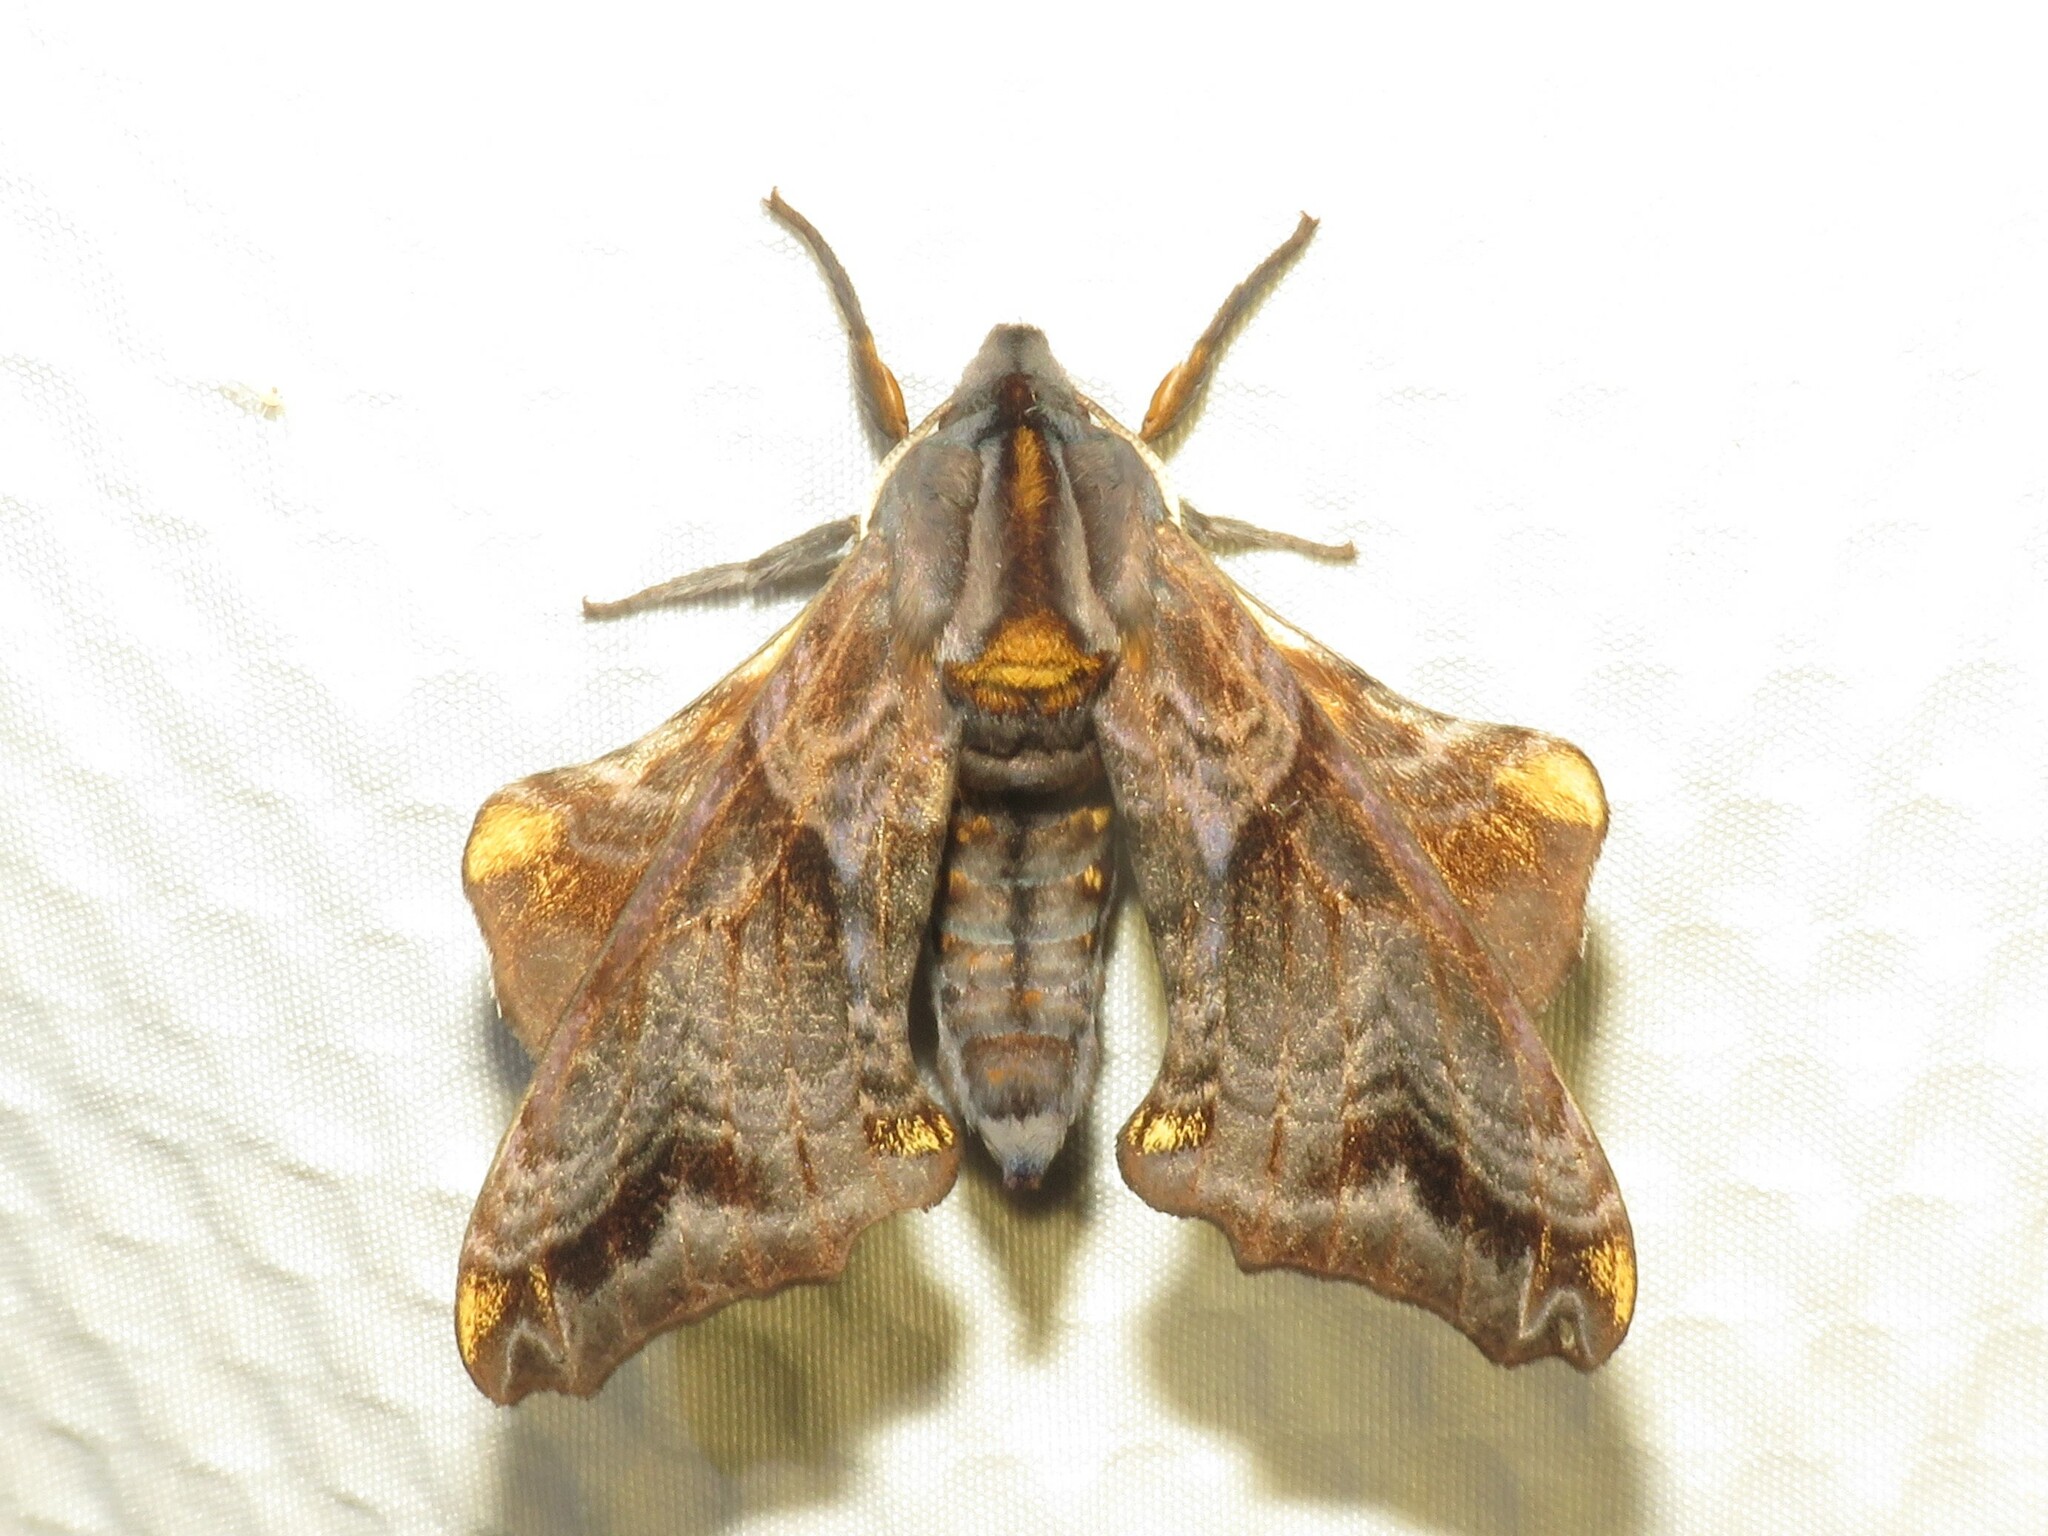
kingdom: Animalia
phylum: Arthropoda
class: Insecta
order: Lepidoptera
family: Sphingidae
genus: Paonias
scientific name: Paonias myops
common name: Small-eyed sphinx
